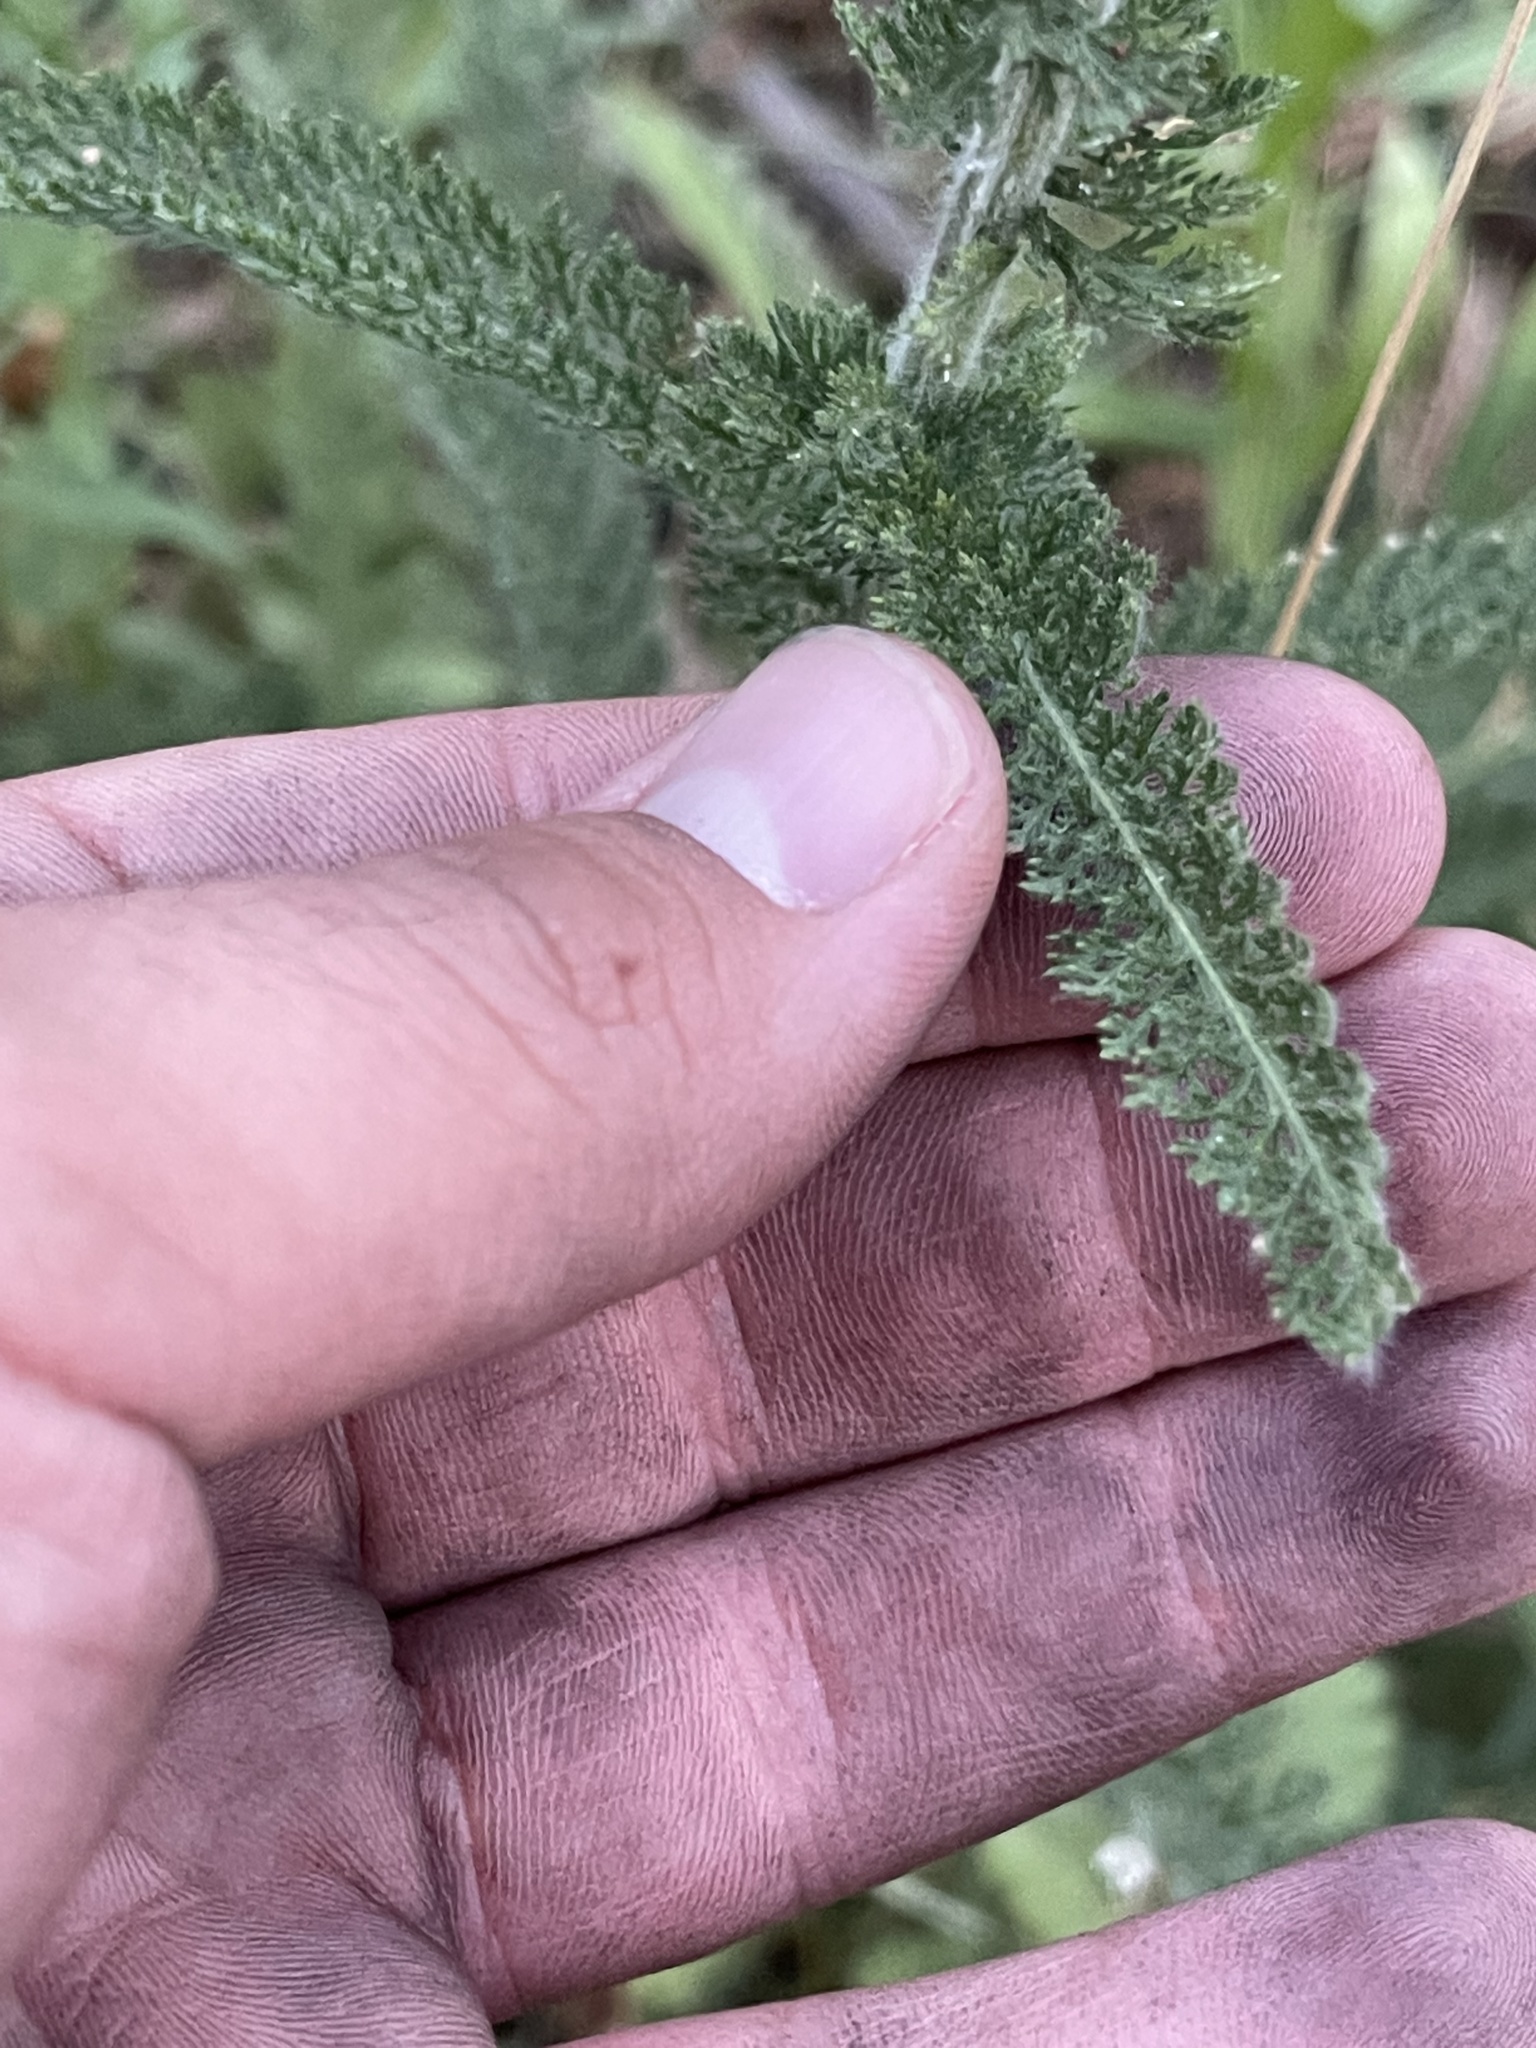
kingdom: Plantae
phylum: Tracheophyta
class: Magnoliopsida
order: Asterales
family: Asteraceae
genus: Achillea
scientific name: Achillea millefolium
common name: Yarrow
